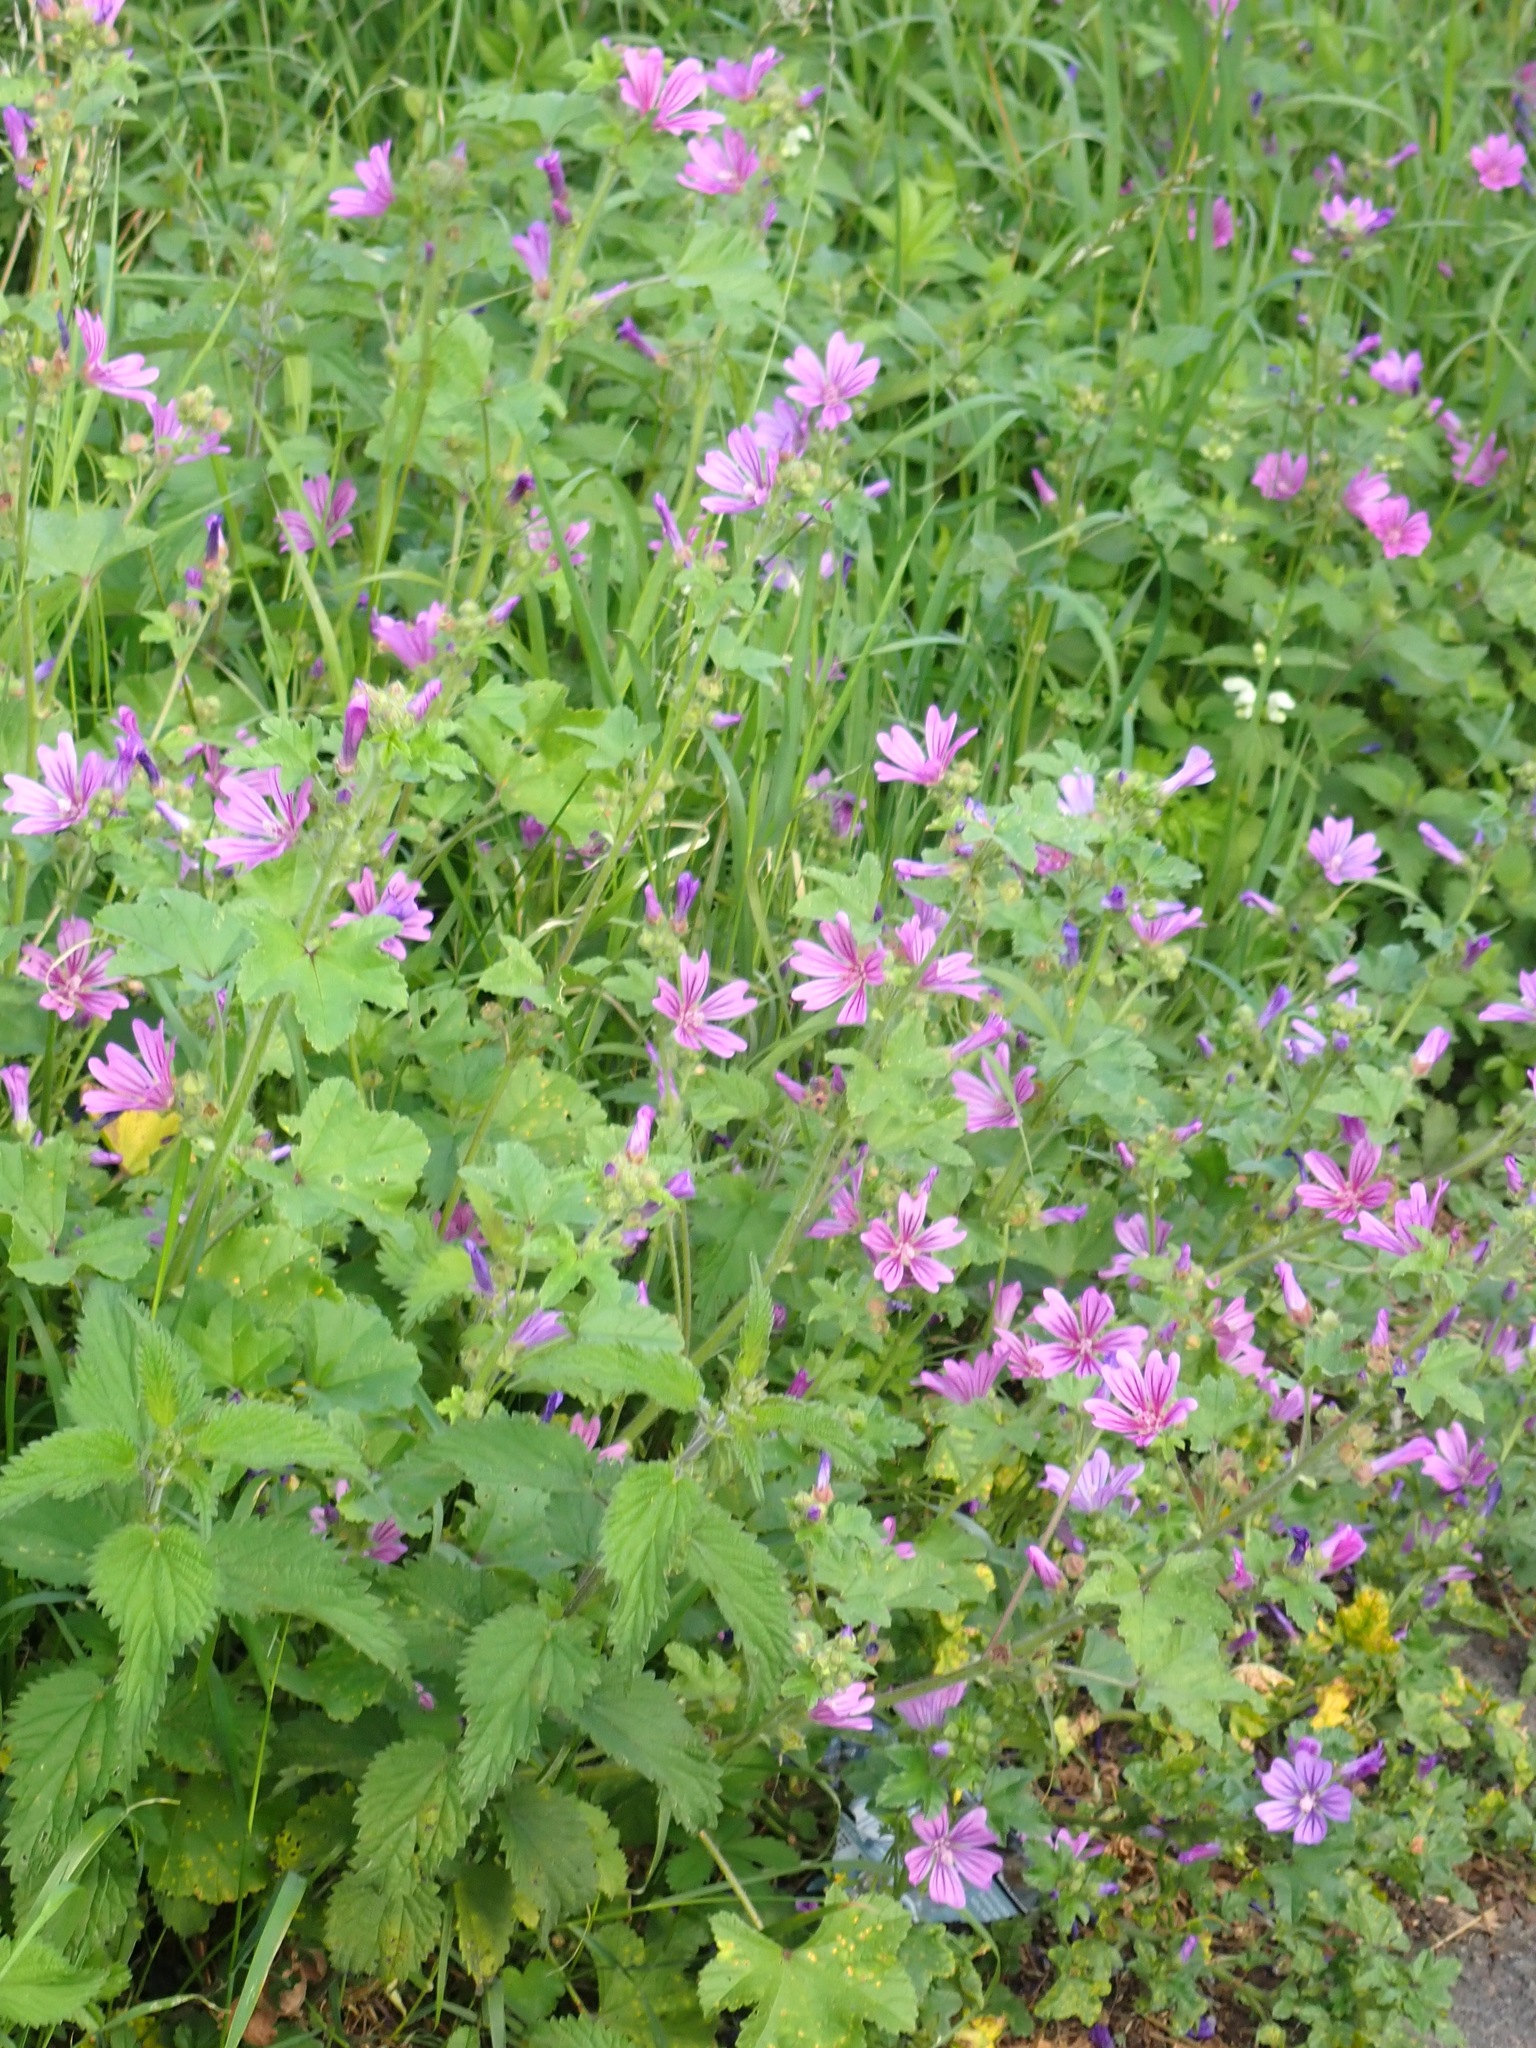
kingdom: Plantae
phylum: Tracheophyta
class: Magnoliopsida
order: Malvales
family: Malvaceae
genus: Malva
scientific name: Malva sylvestris
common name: Common mallow
